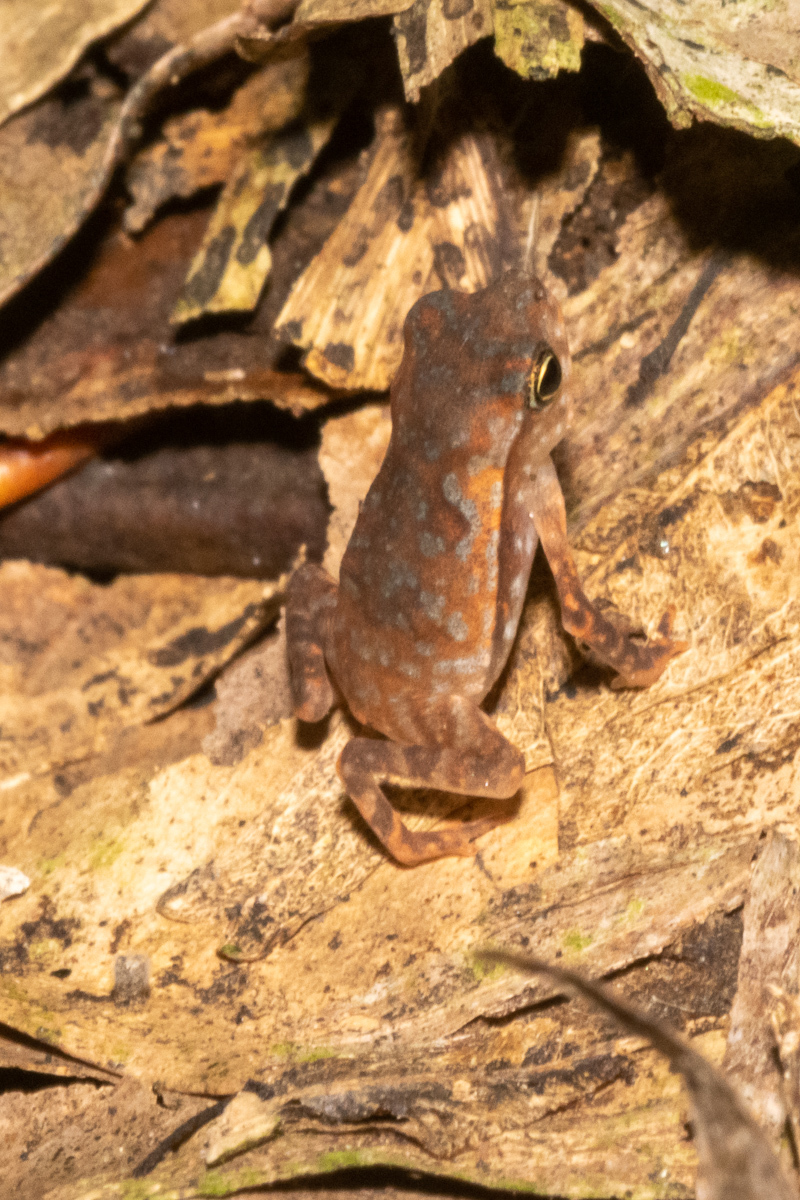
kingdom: Animalia
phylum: Chordata
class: Amphibia
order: Anura
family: Bufonidae
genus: Rhinella
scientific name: Rhinella margaritifera
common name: Mitred toad
